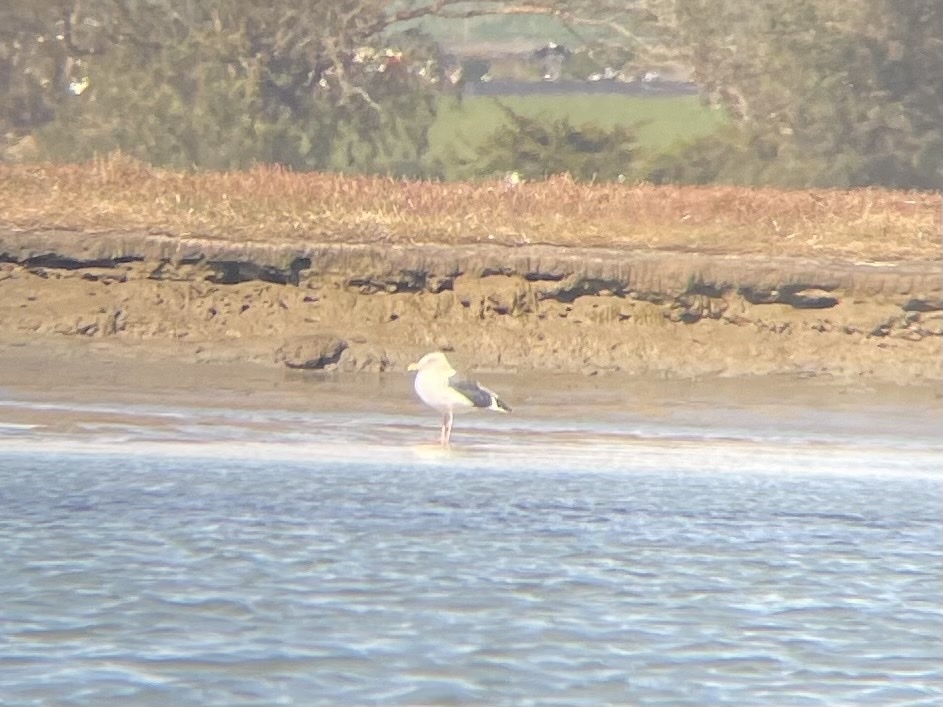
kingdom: Animalia
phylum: Chordata
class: Aves
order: Charadriiformes
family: Laridae
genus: Larus
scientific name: Larus occidentalis
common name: Western gull
